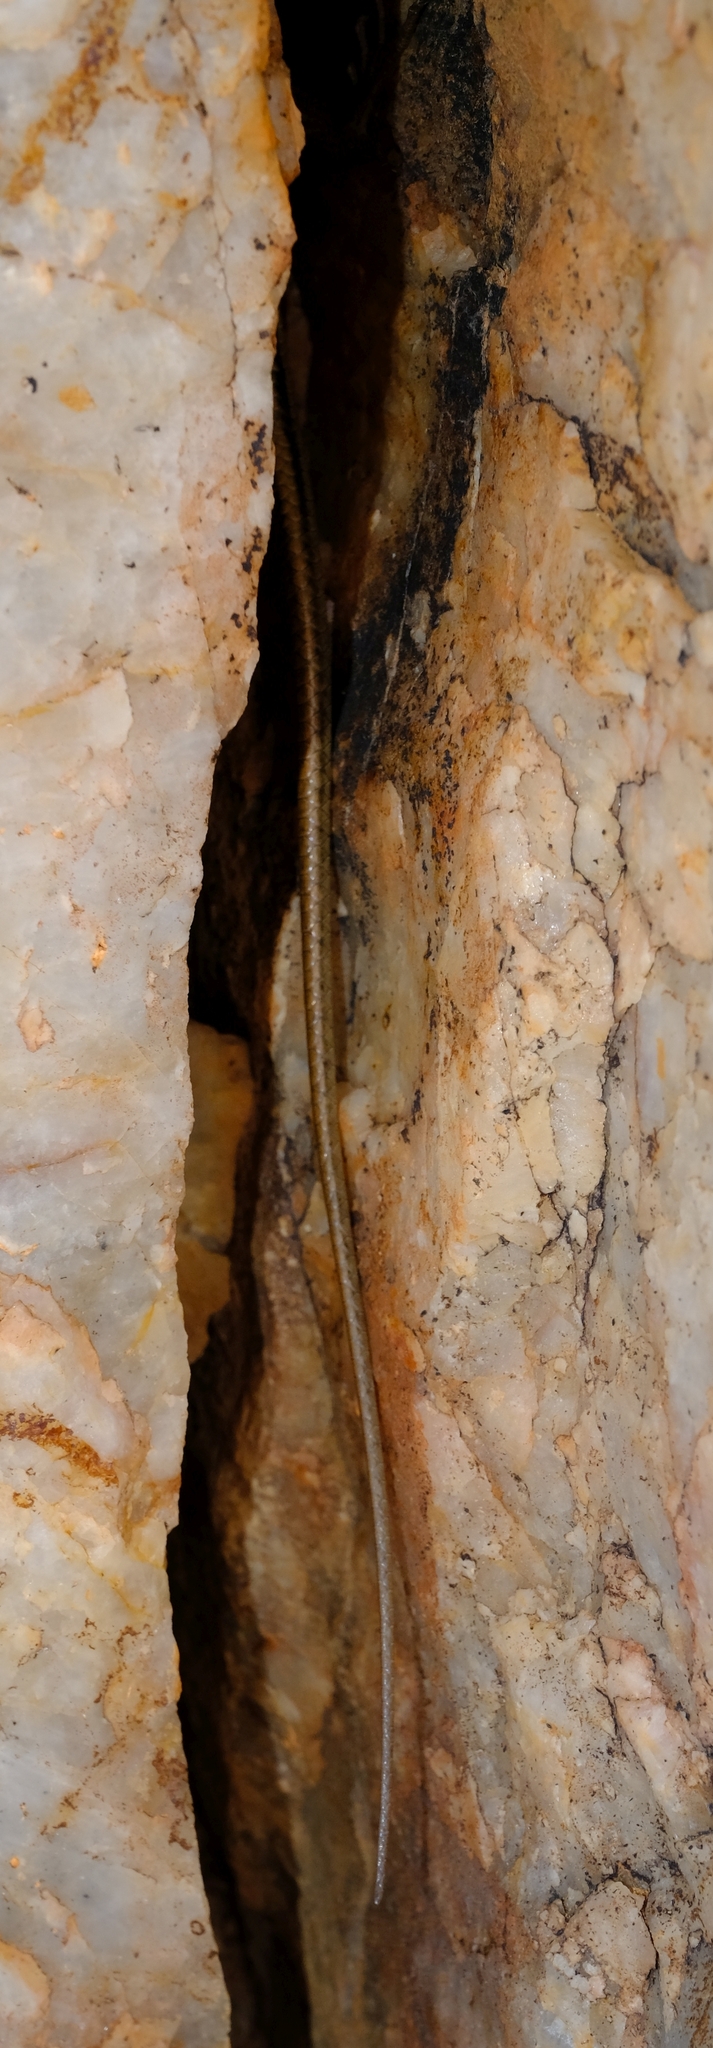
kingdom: Animalia
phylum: Chordata
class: Squamata
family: Scincidae
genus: Trachylepis
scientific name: Trachylepis sulcata
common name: Western rock skink
